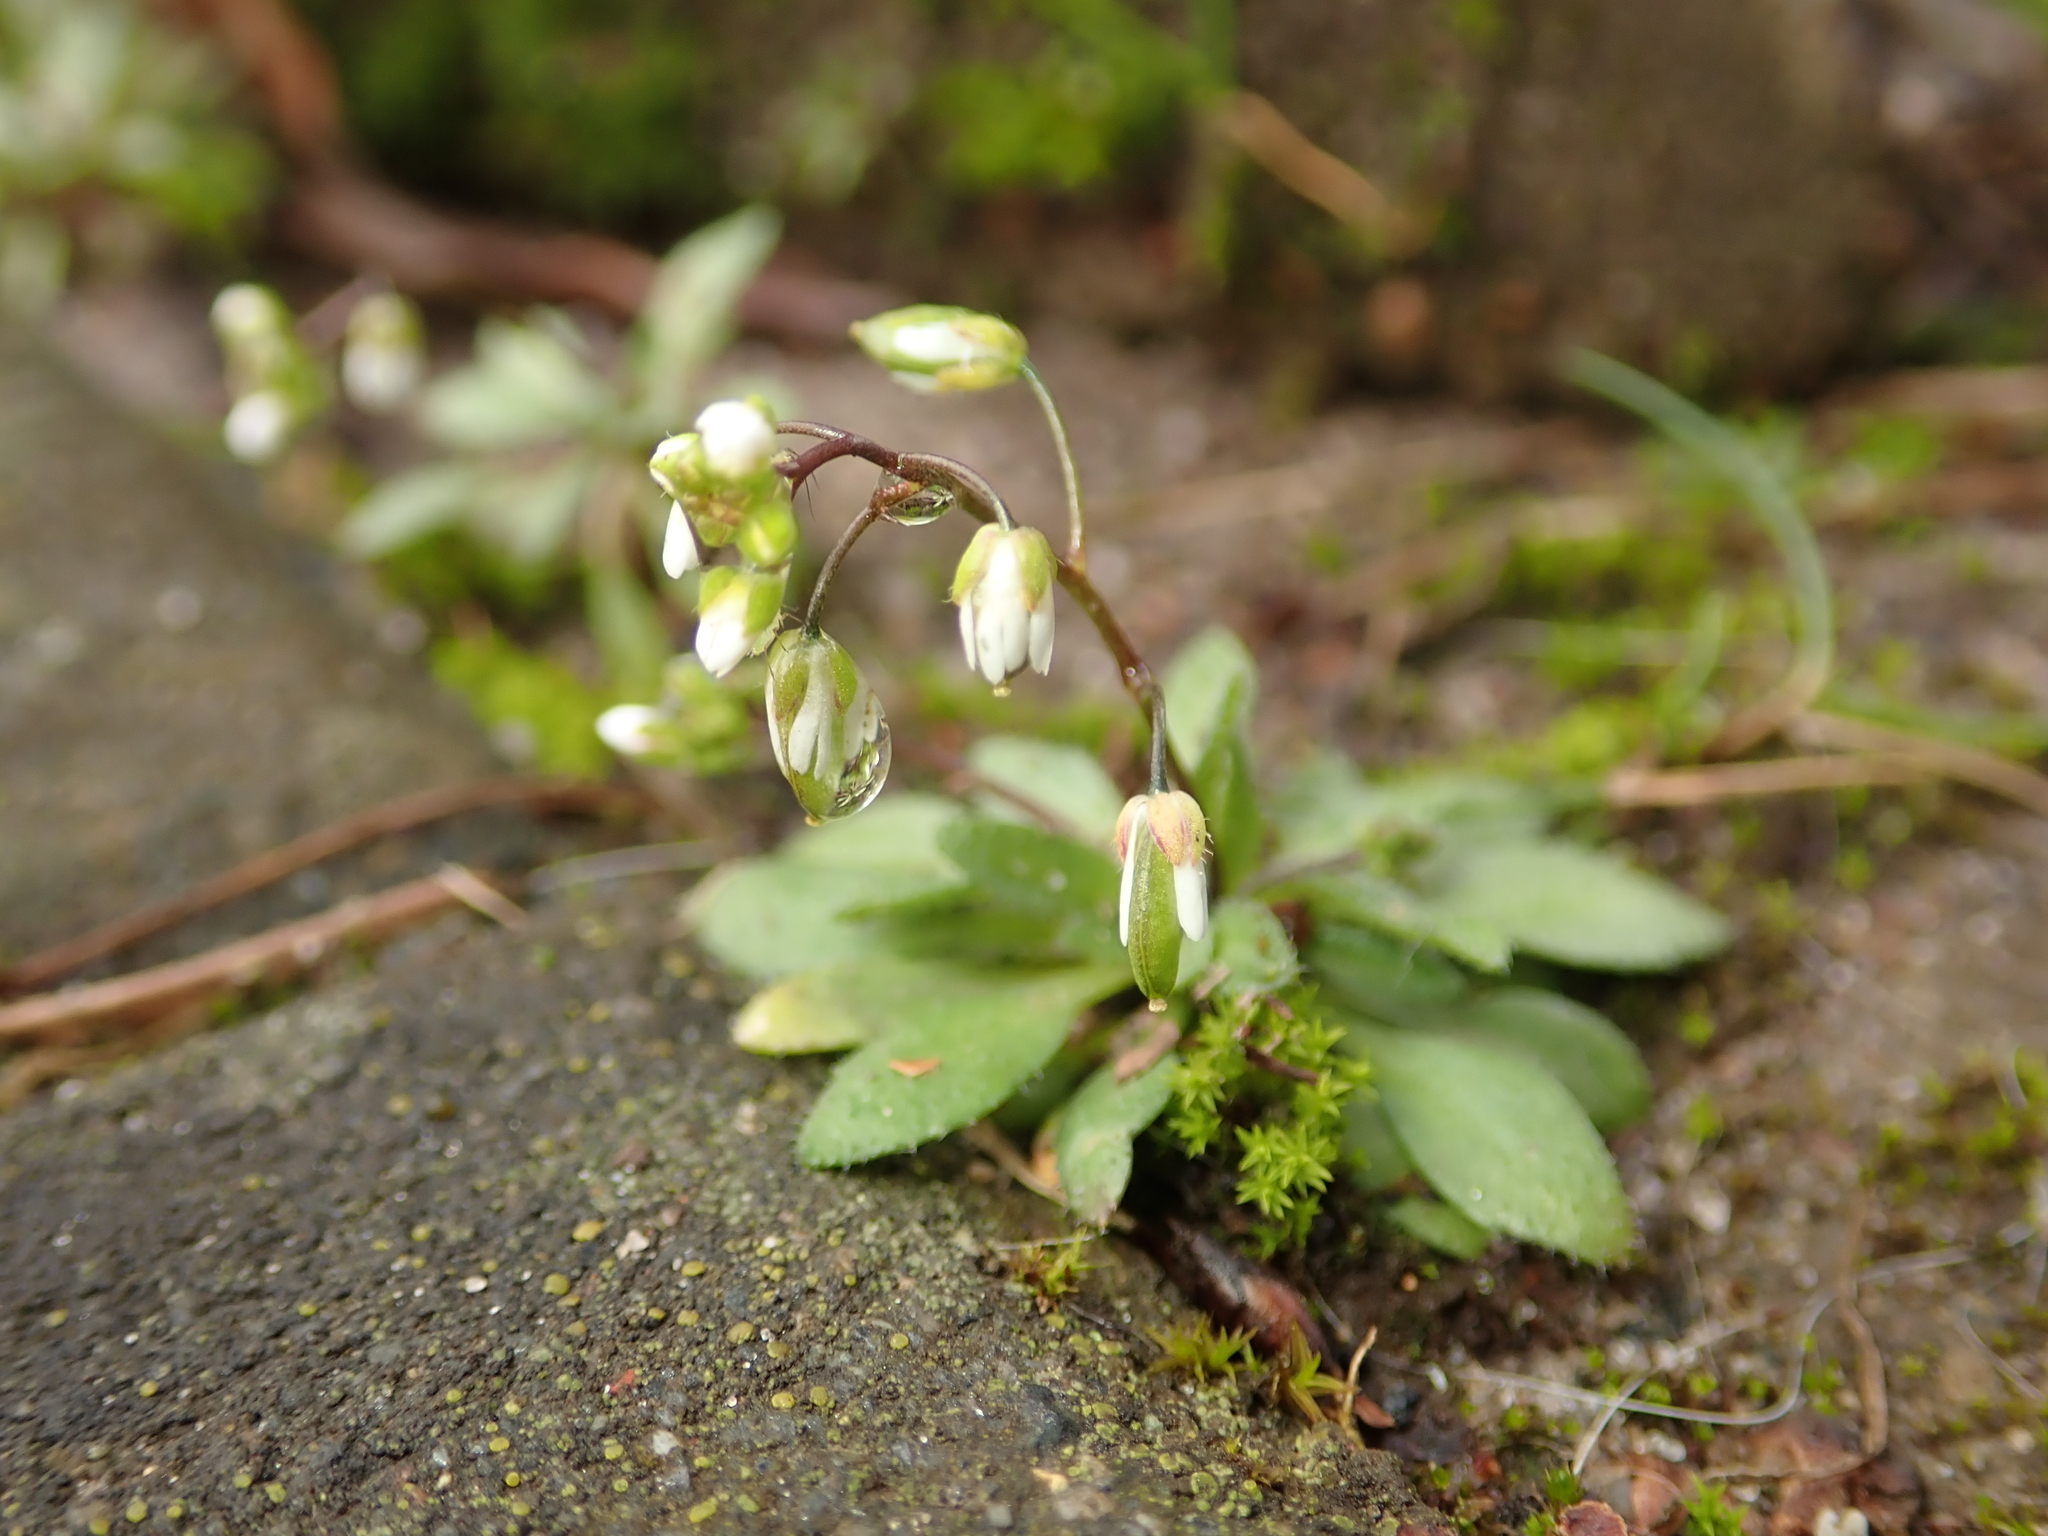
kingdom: Plantae
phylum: Tracheophyta
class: Magnoliopsida
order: Brassicales
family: Brassicaceae
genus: Draba
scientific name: Draba verna
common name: Spring draba
